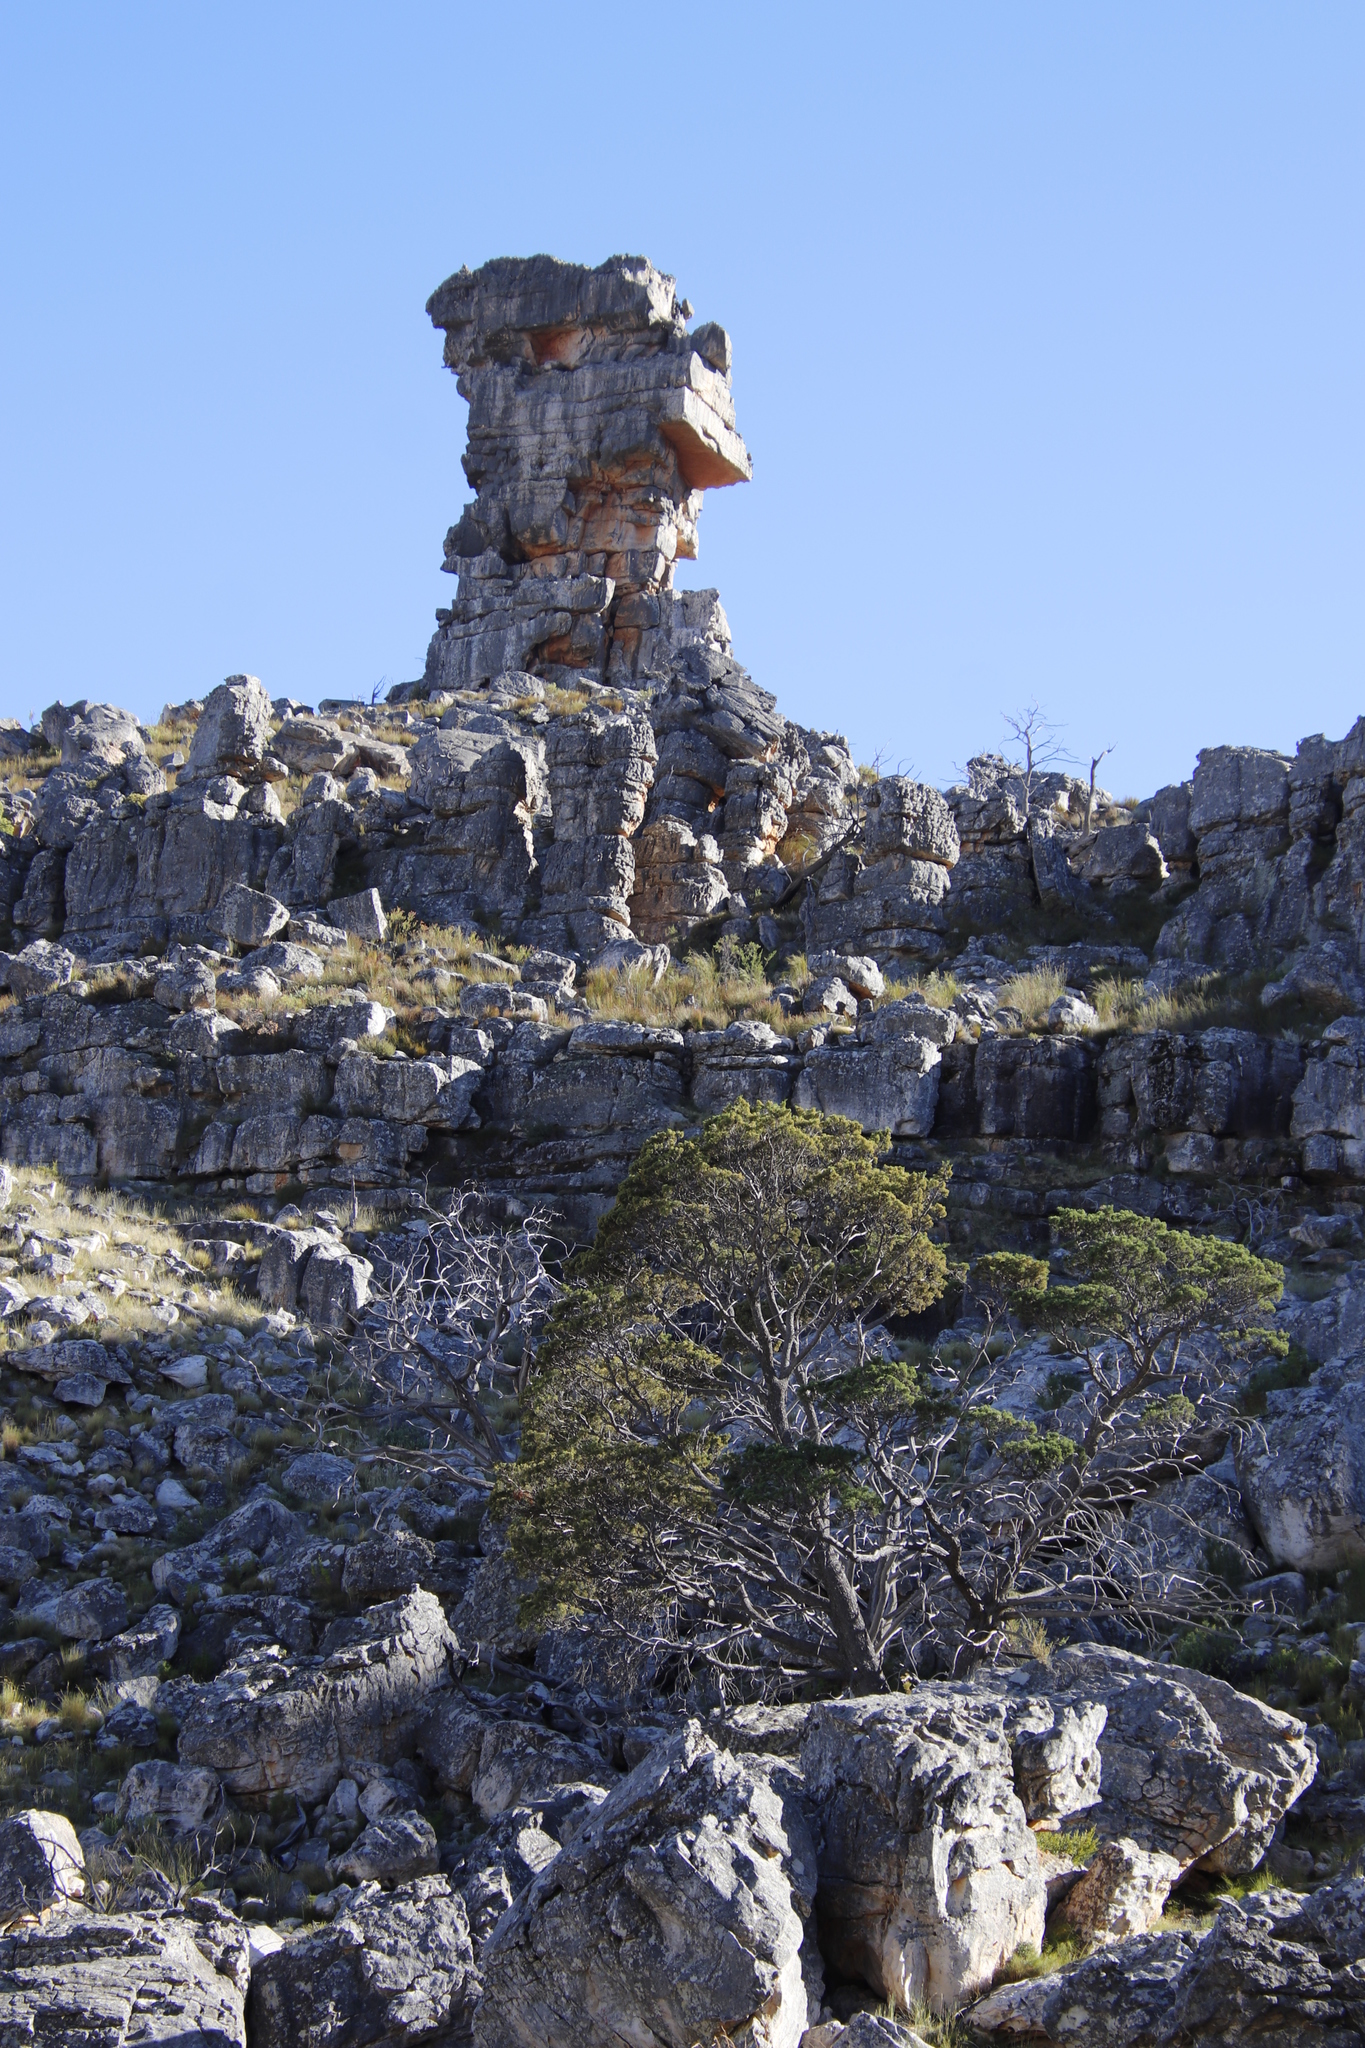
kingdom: Plantae
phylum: Tracheophyta
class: Pinopsida
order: Pinales
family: Cupressaceae
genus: Widdringtonia
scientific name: Widdringtonia nodiflora
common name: Cape cypress
